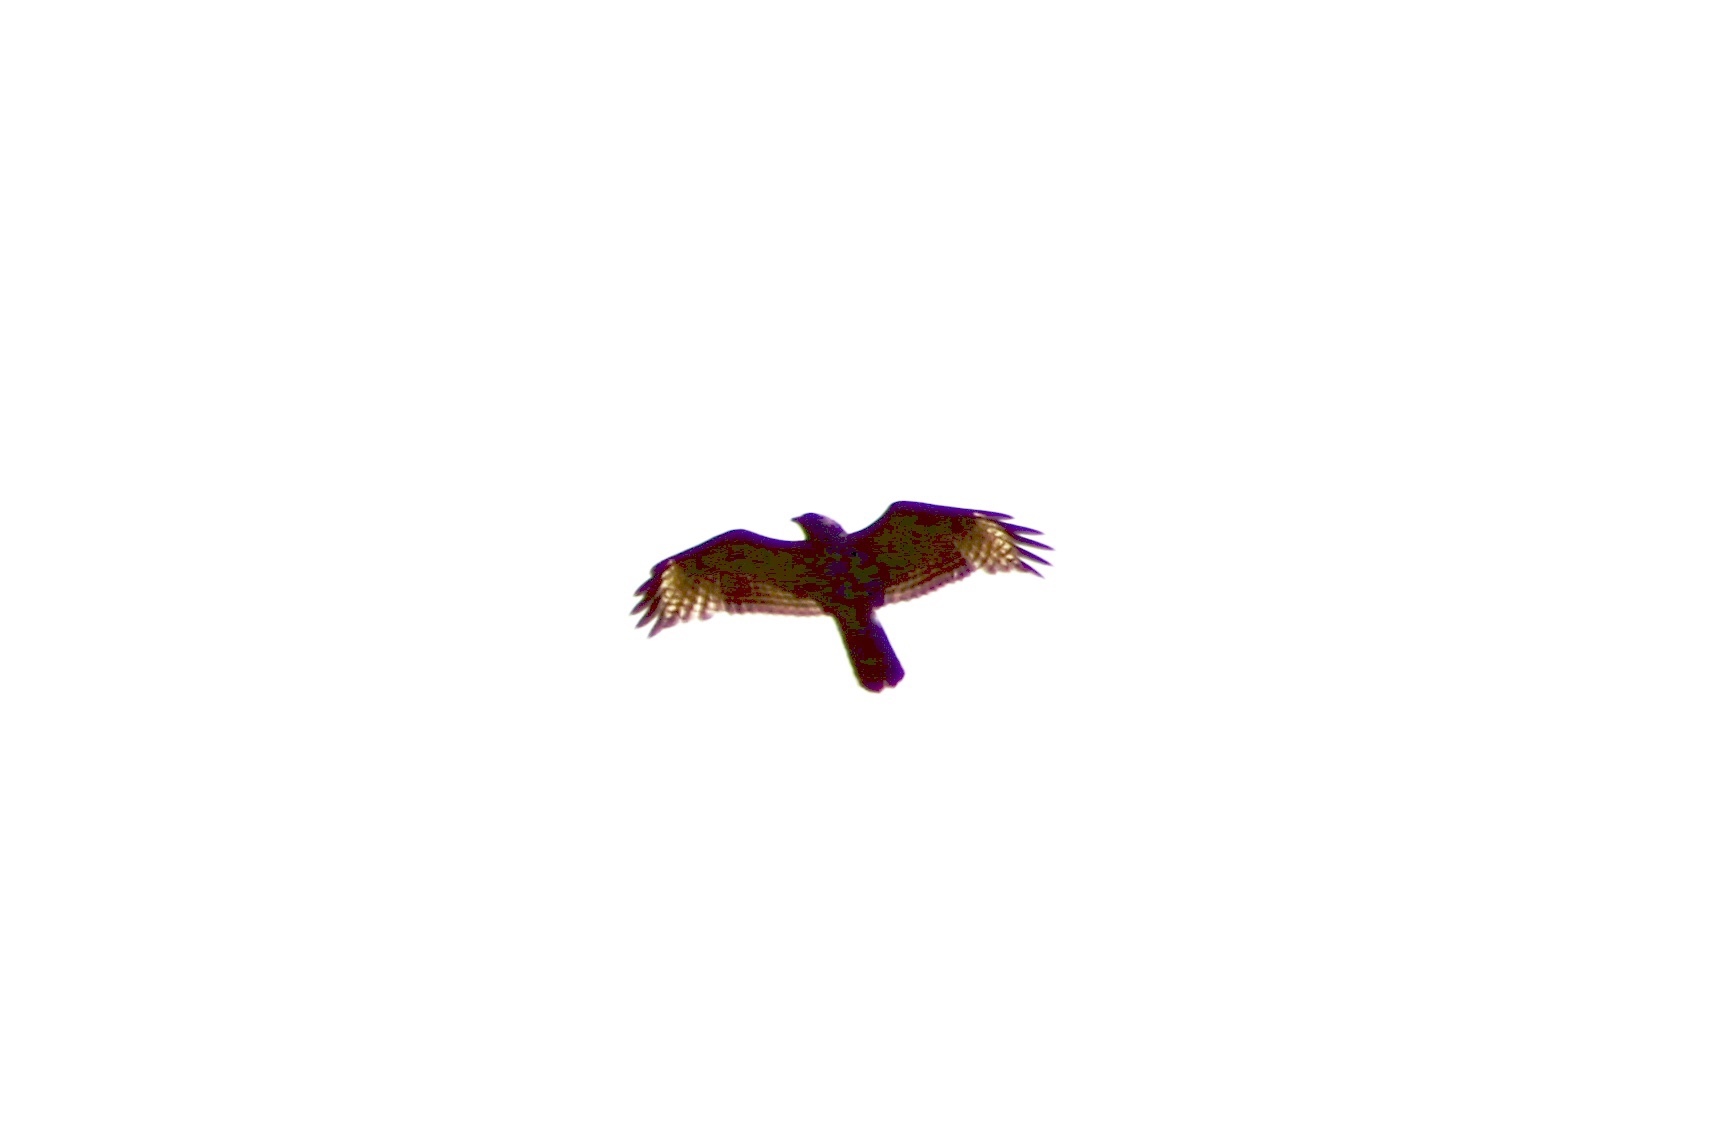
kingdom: Animalia
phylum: Chordata
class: Aves
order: Accipitriformes
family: Accipitridae
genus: Buteo
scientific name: Buteo lineatus
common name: Red-shouldered hawk
